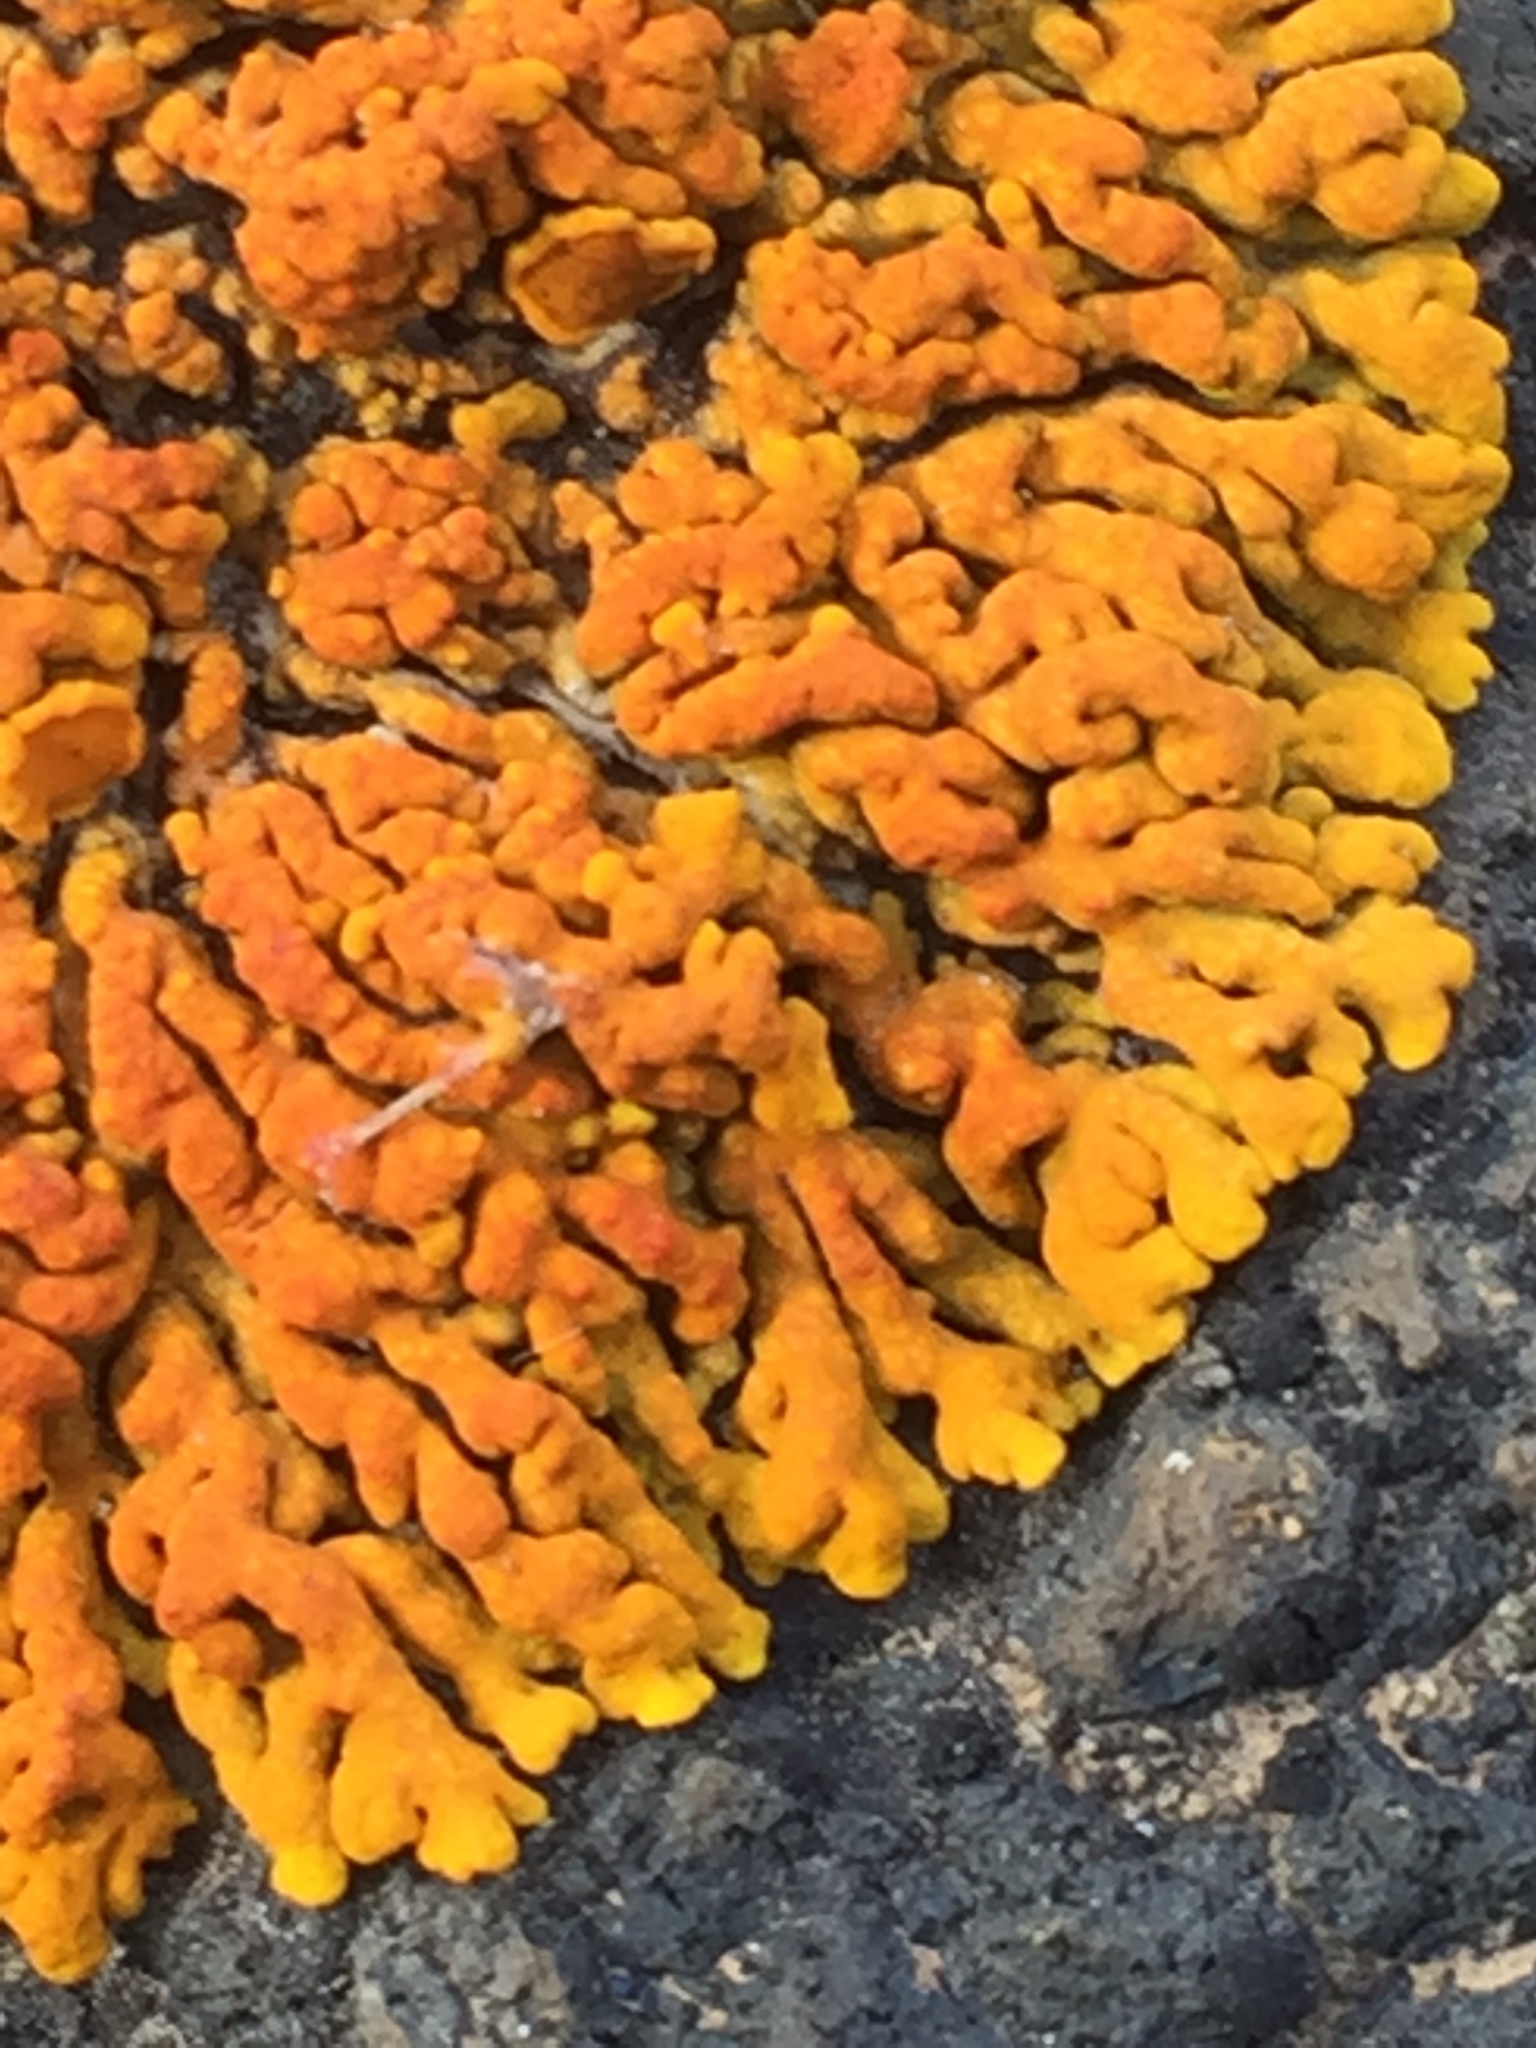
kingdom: Fungi
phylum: Ascomycota
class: Lecanoromycetes
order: Teloschistales
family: Teloschistaceae
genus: Xanthoria
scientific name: Xanthoria elegans
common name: Elegant sunburst lichen
